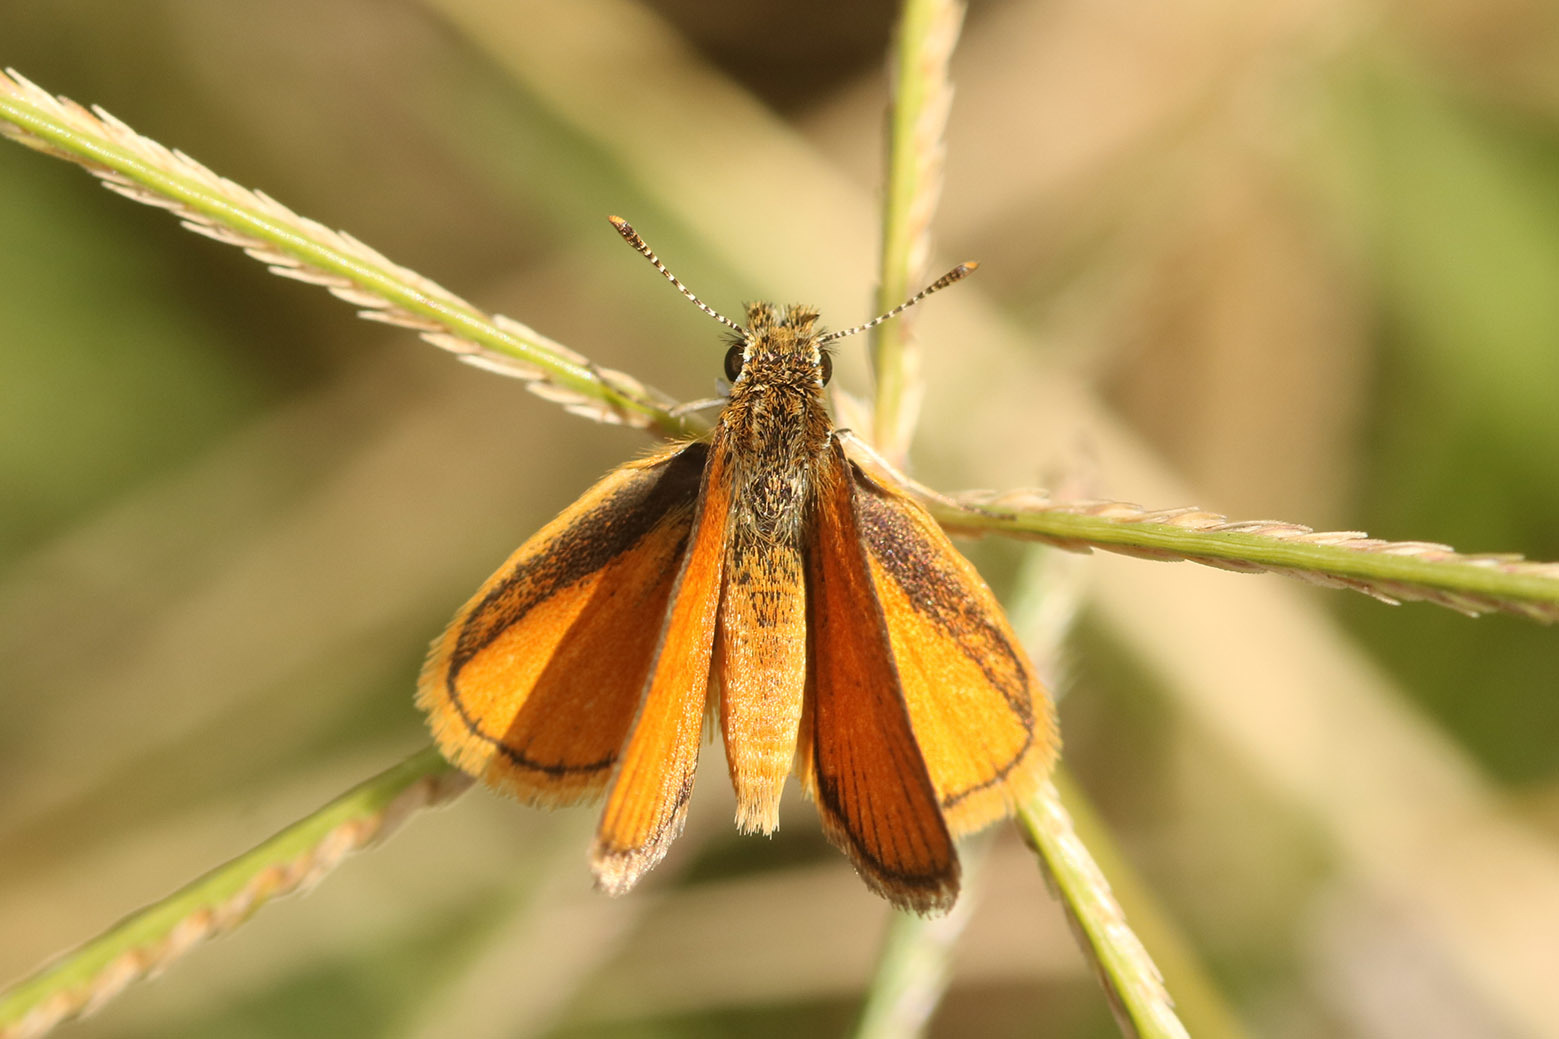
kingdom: Animalia
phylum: Arthropoda
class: Insecta
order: Lepidoptera
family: Hesperiidae
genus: Ancyloxypha
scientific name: Ancyloxypha nitedula
